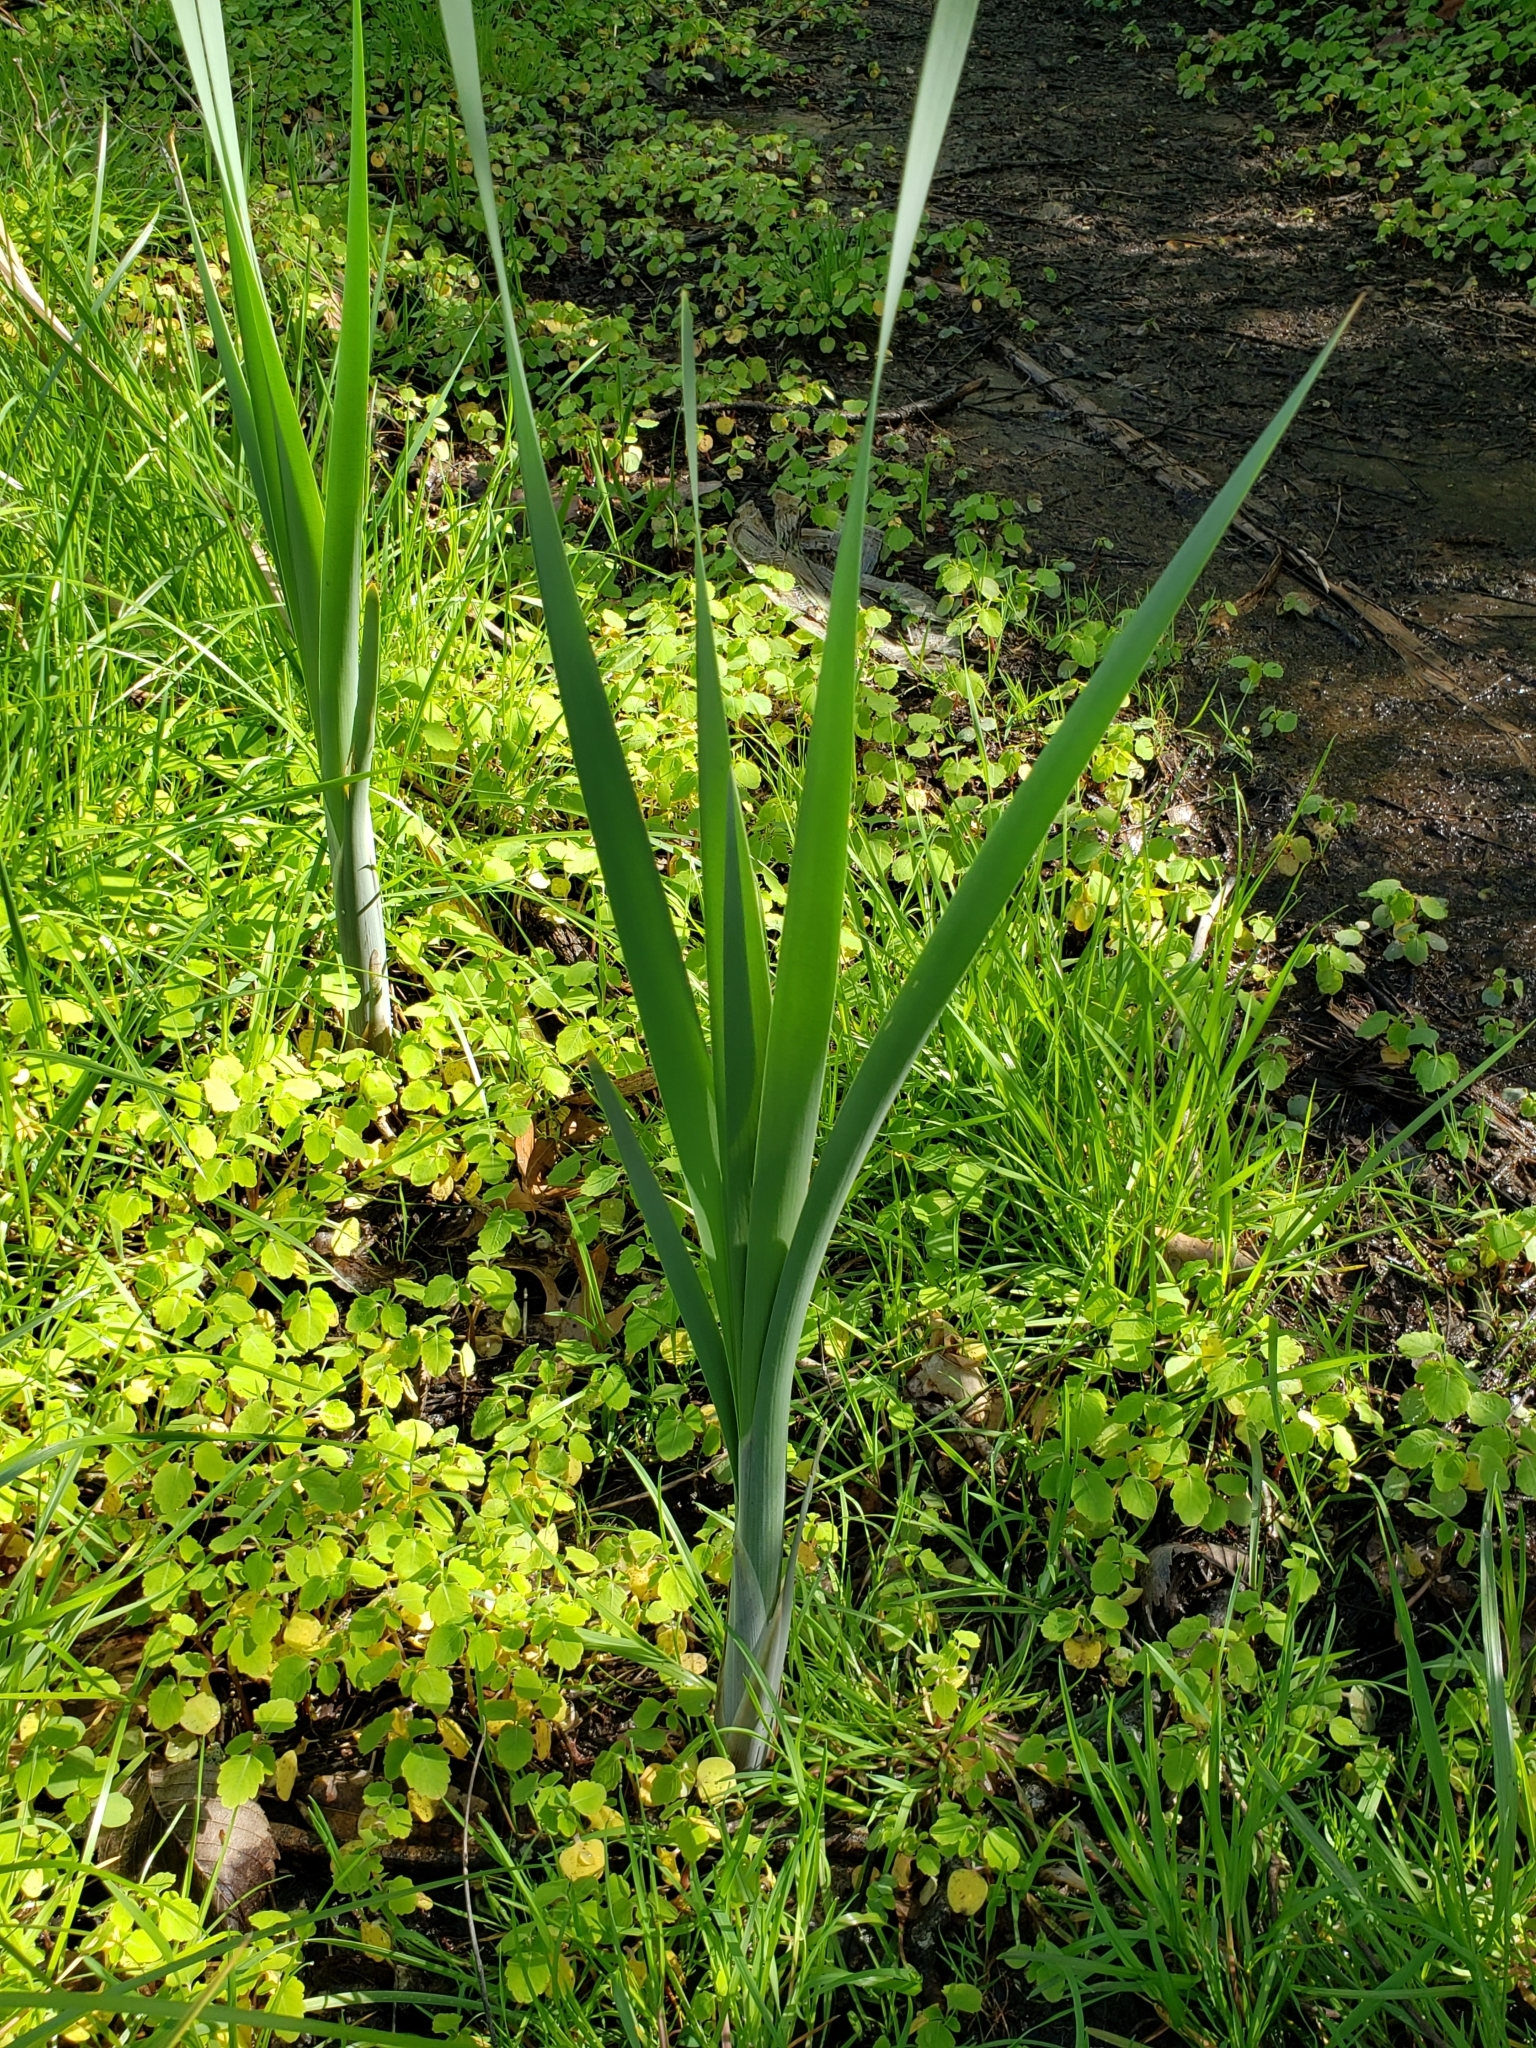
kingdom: Plantae
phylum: Tracheophyta
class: Liliopsida
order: Poales
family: Typhaceae
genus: Typha
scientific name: Typha latifolia
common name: Broadleaf cattail
